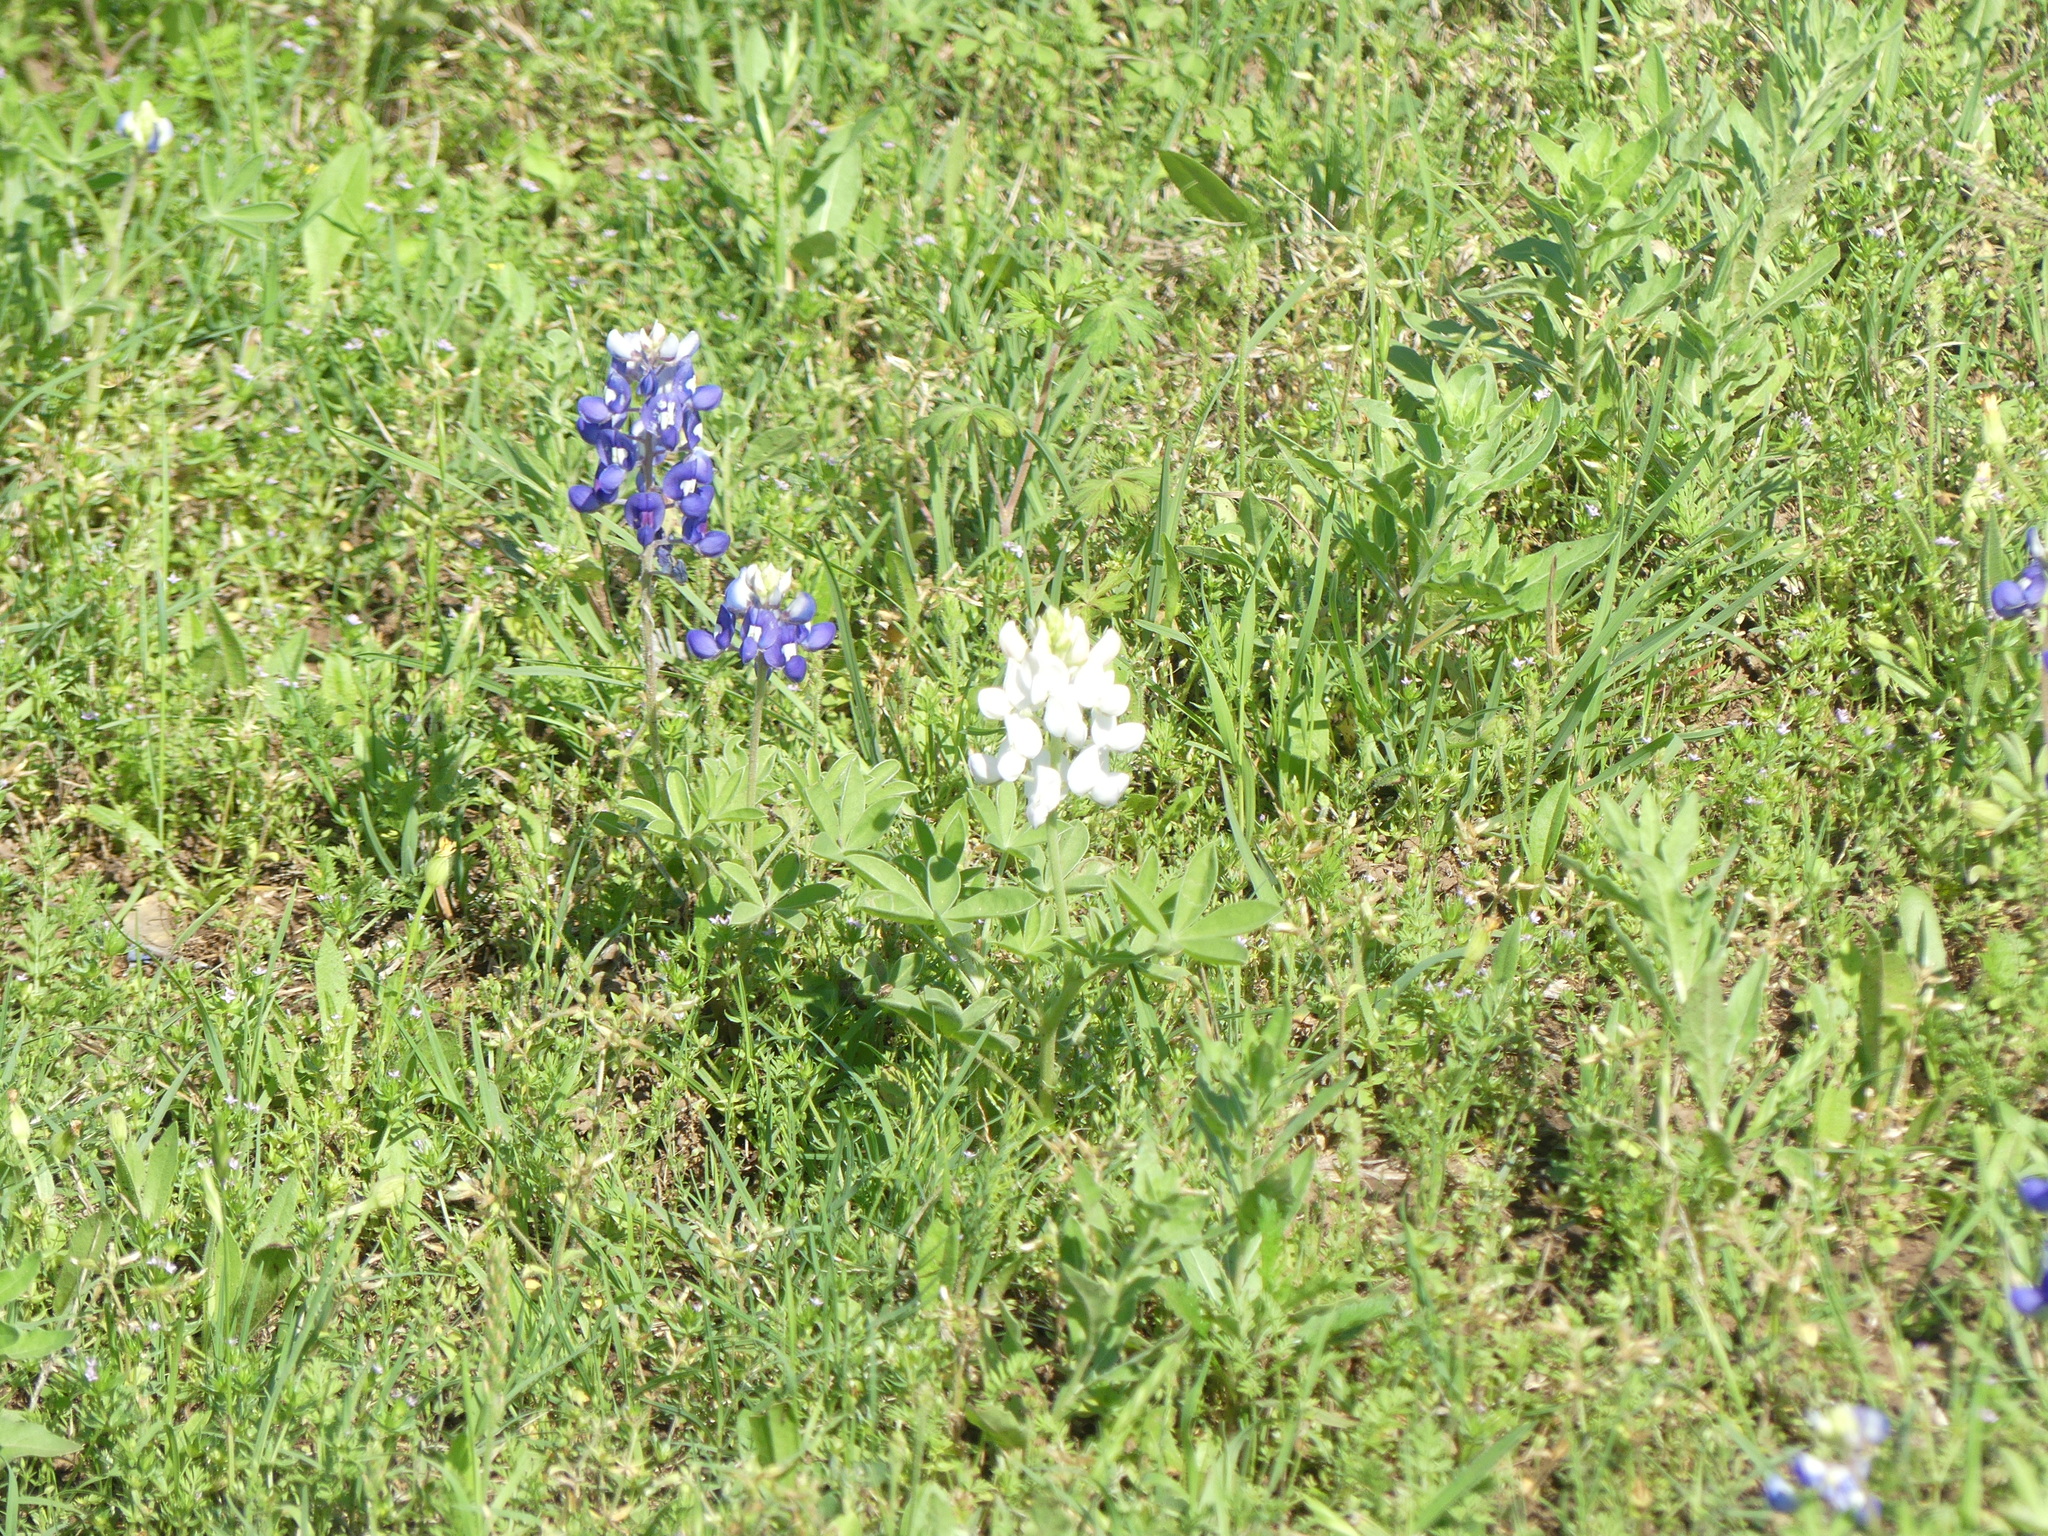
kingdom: Plantae
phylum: Tracheophyta
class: Magnoliopsida
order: Fabales
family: Fabaceae
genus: Lupinus
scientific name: Lupinus texensis
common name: Texas bluebonnet
